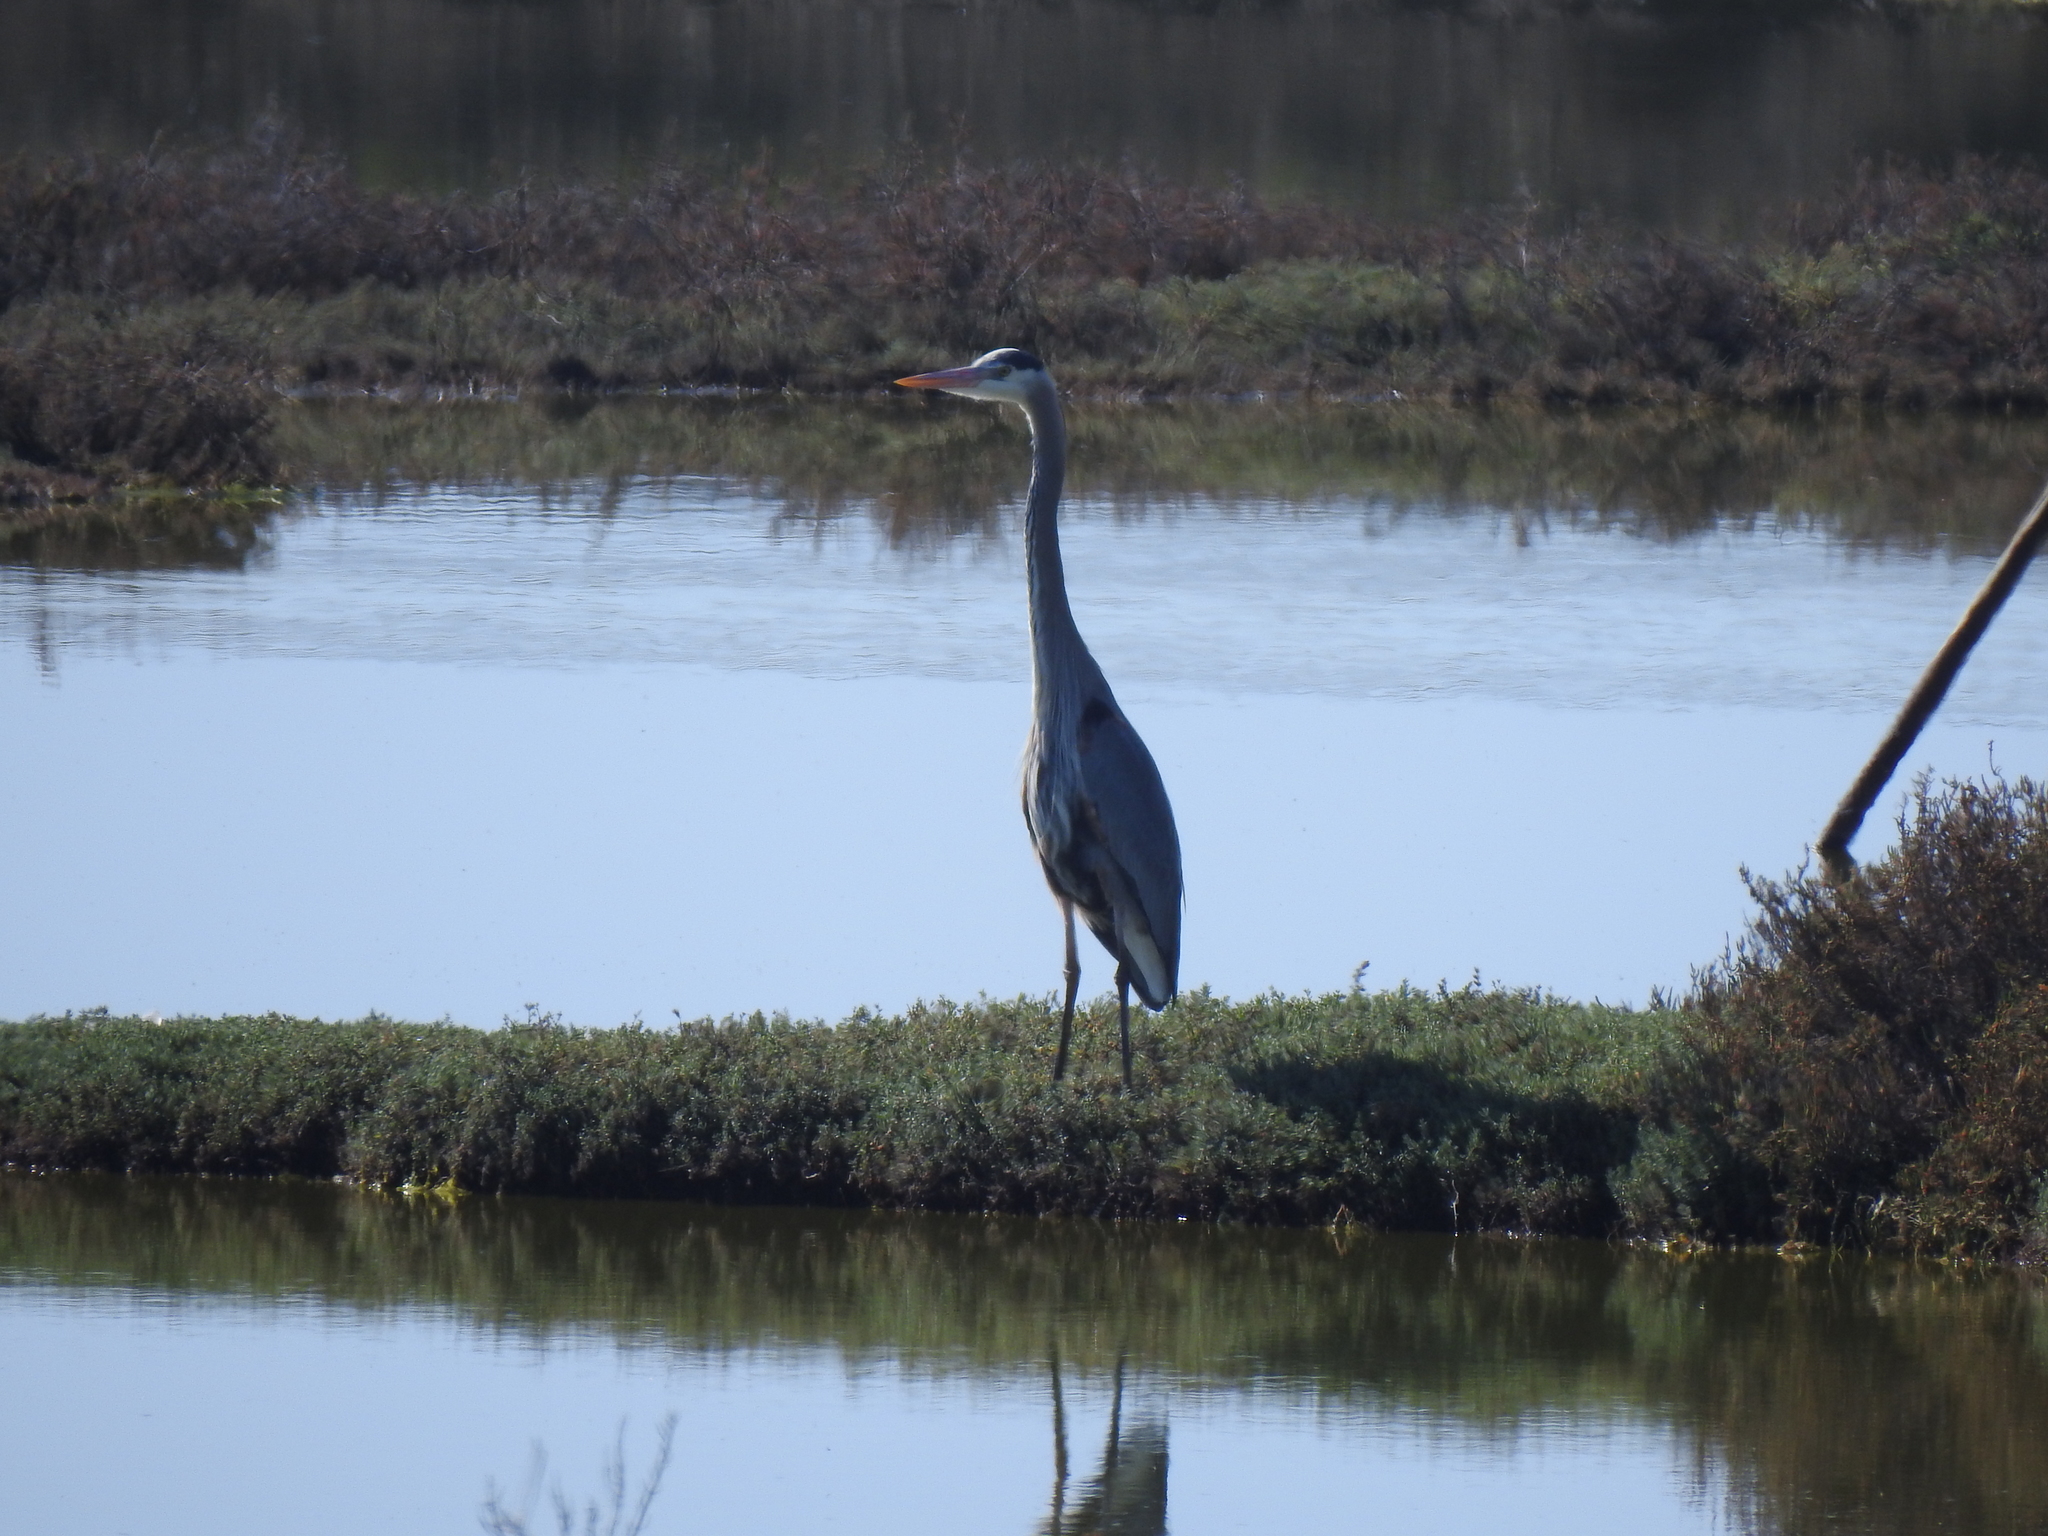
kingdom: Animalia
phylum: Chordata
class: Aves
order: Pelecaniformes
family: Ardeidae
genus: Ardea
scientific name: Ardea herodias
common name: Great blue heron
